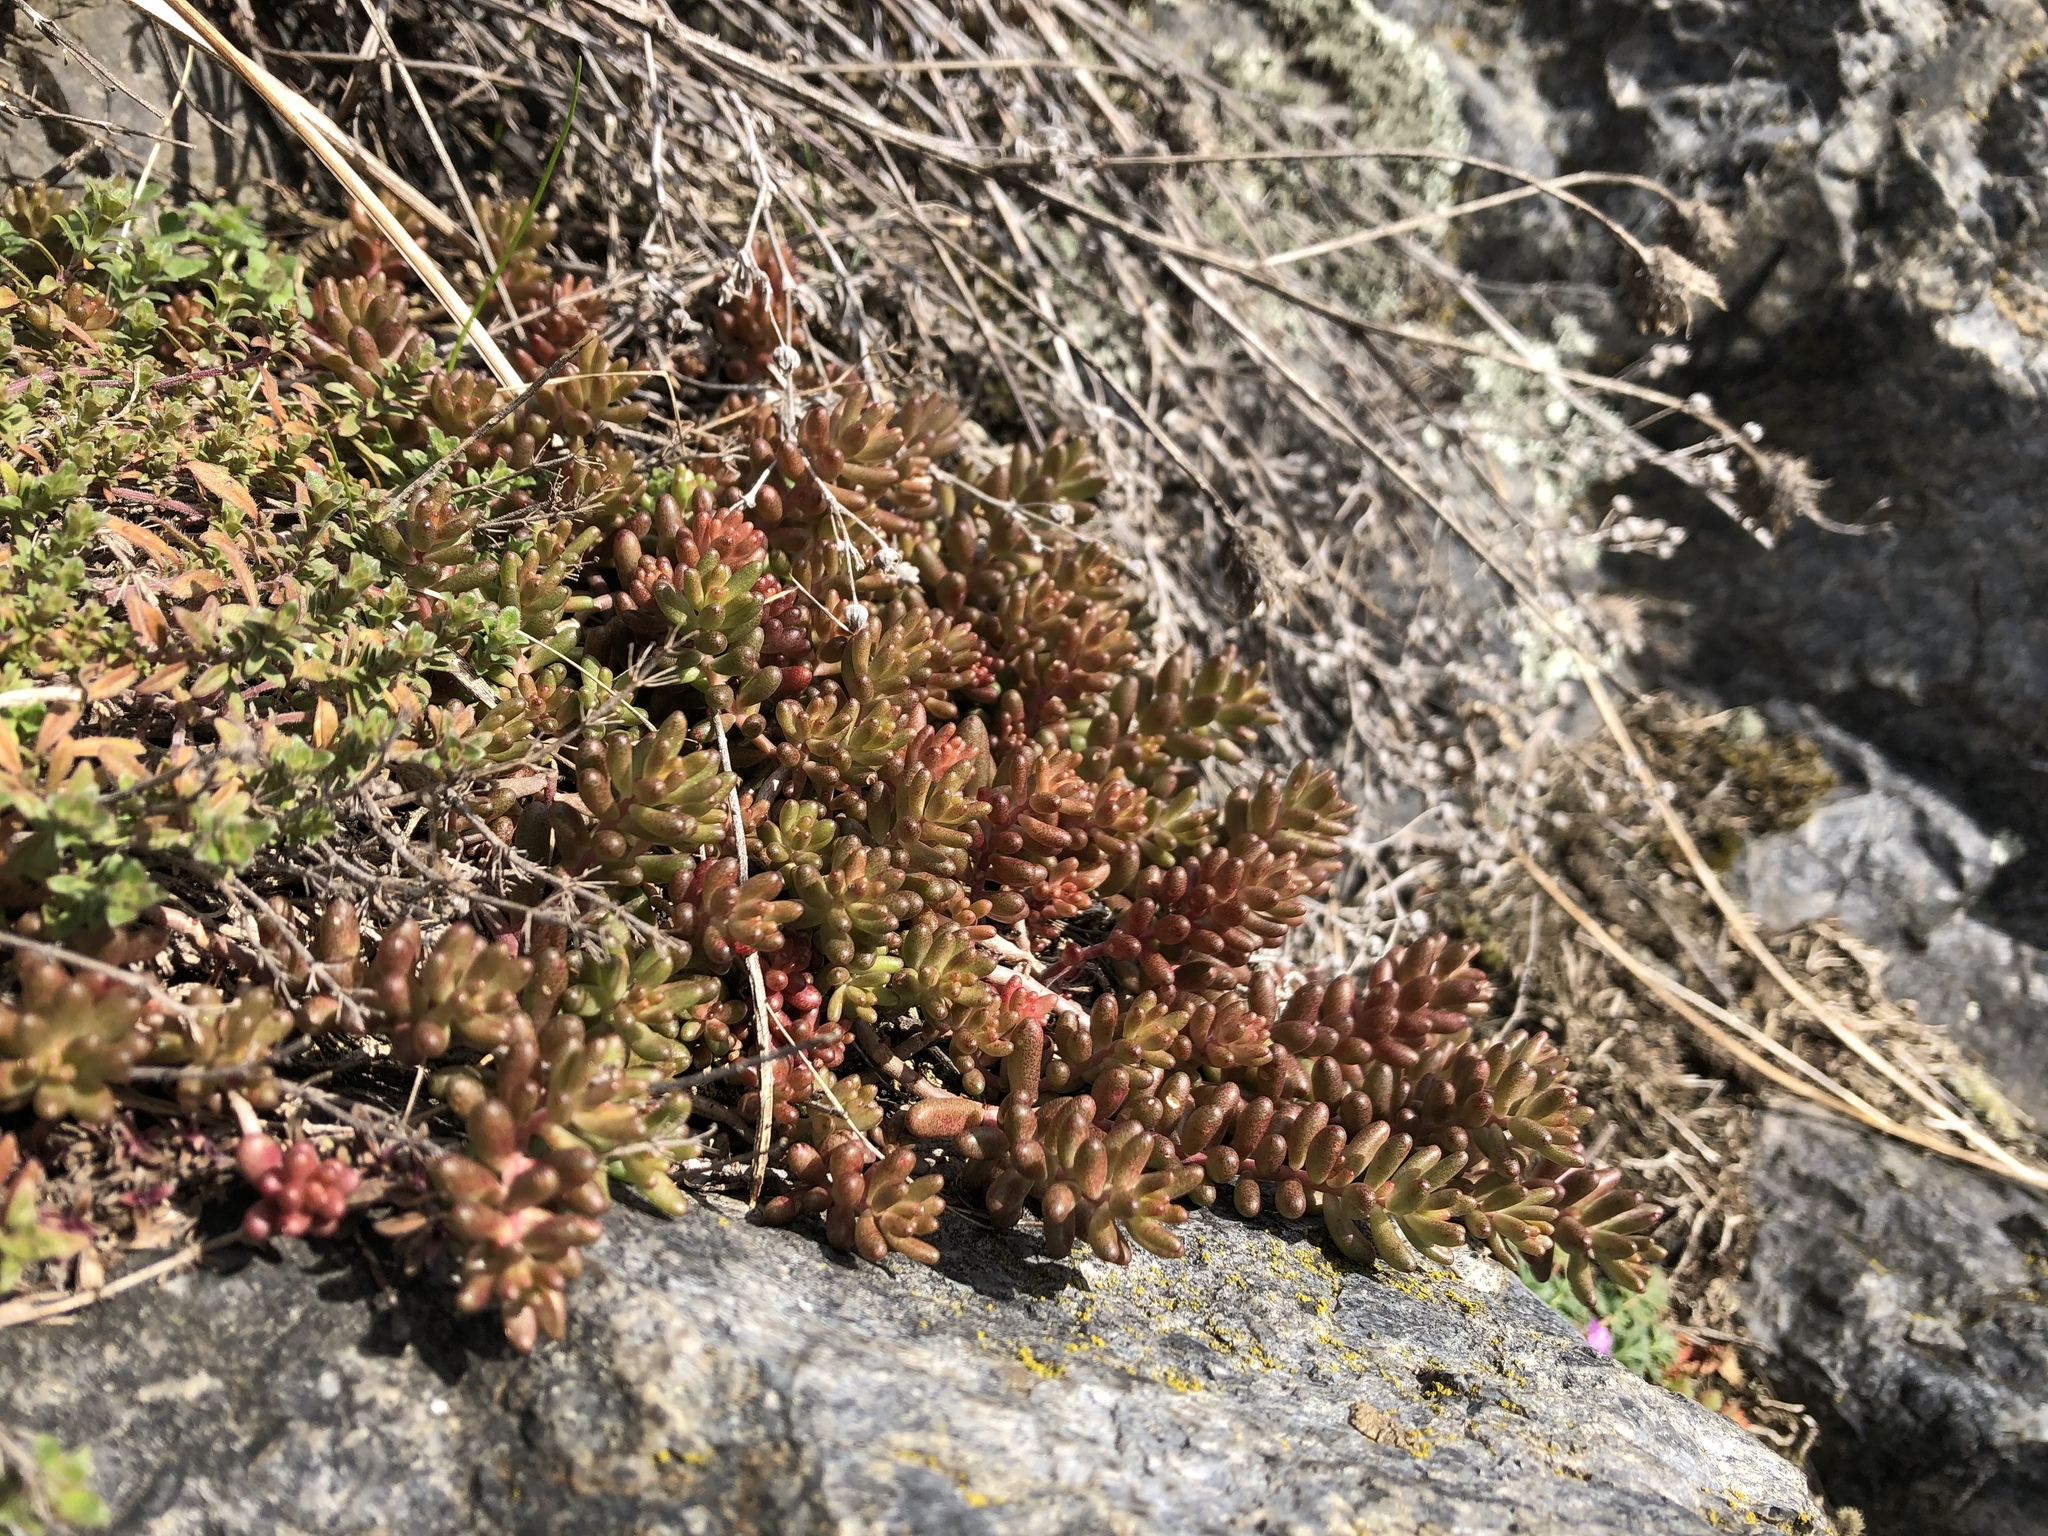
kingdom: Plantae
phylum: Tracheophyta
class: Magnoliopsida
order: Saxifragales
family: Crassulaceae
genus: Sedum
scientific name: Sedum album
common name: White stonecrop
